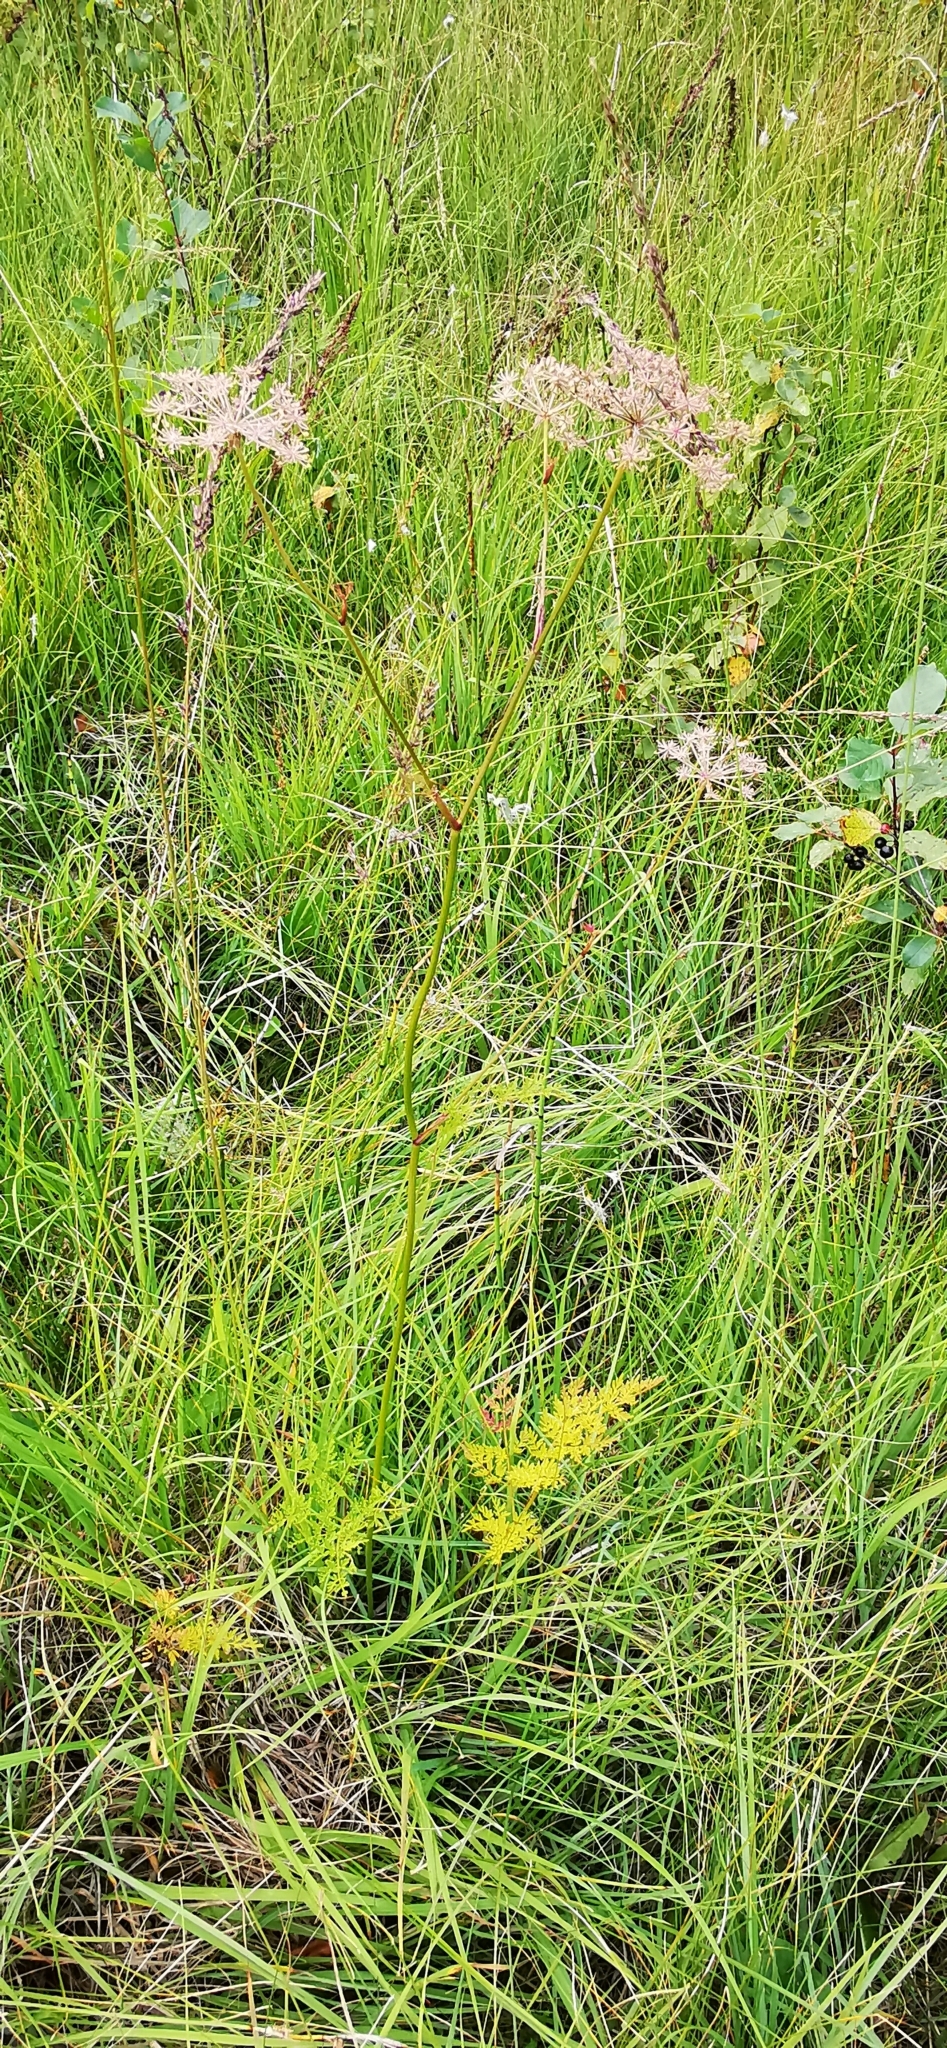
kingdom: Plantae
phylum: Tracheophyta
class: Magnoliopsida
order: Apiales
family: Apiaceae
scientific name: Apiaceae
